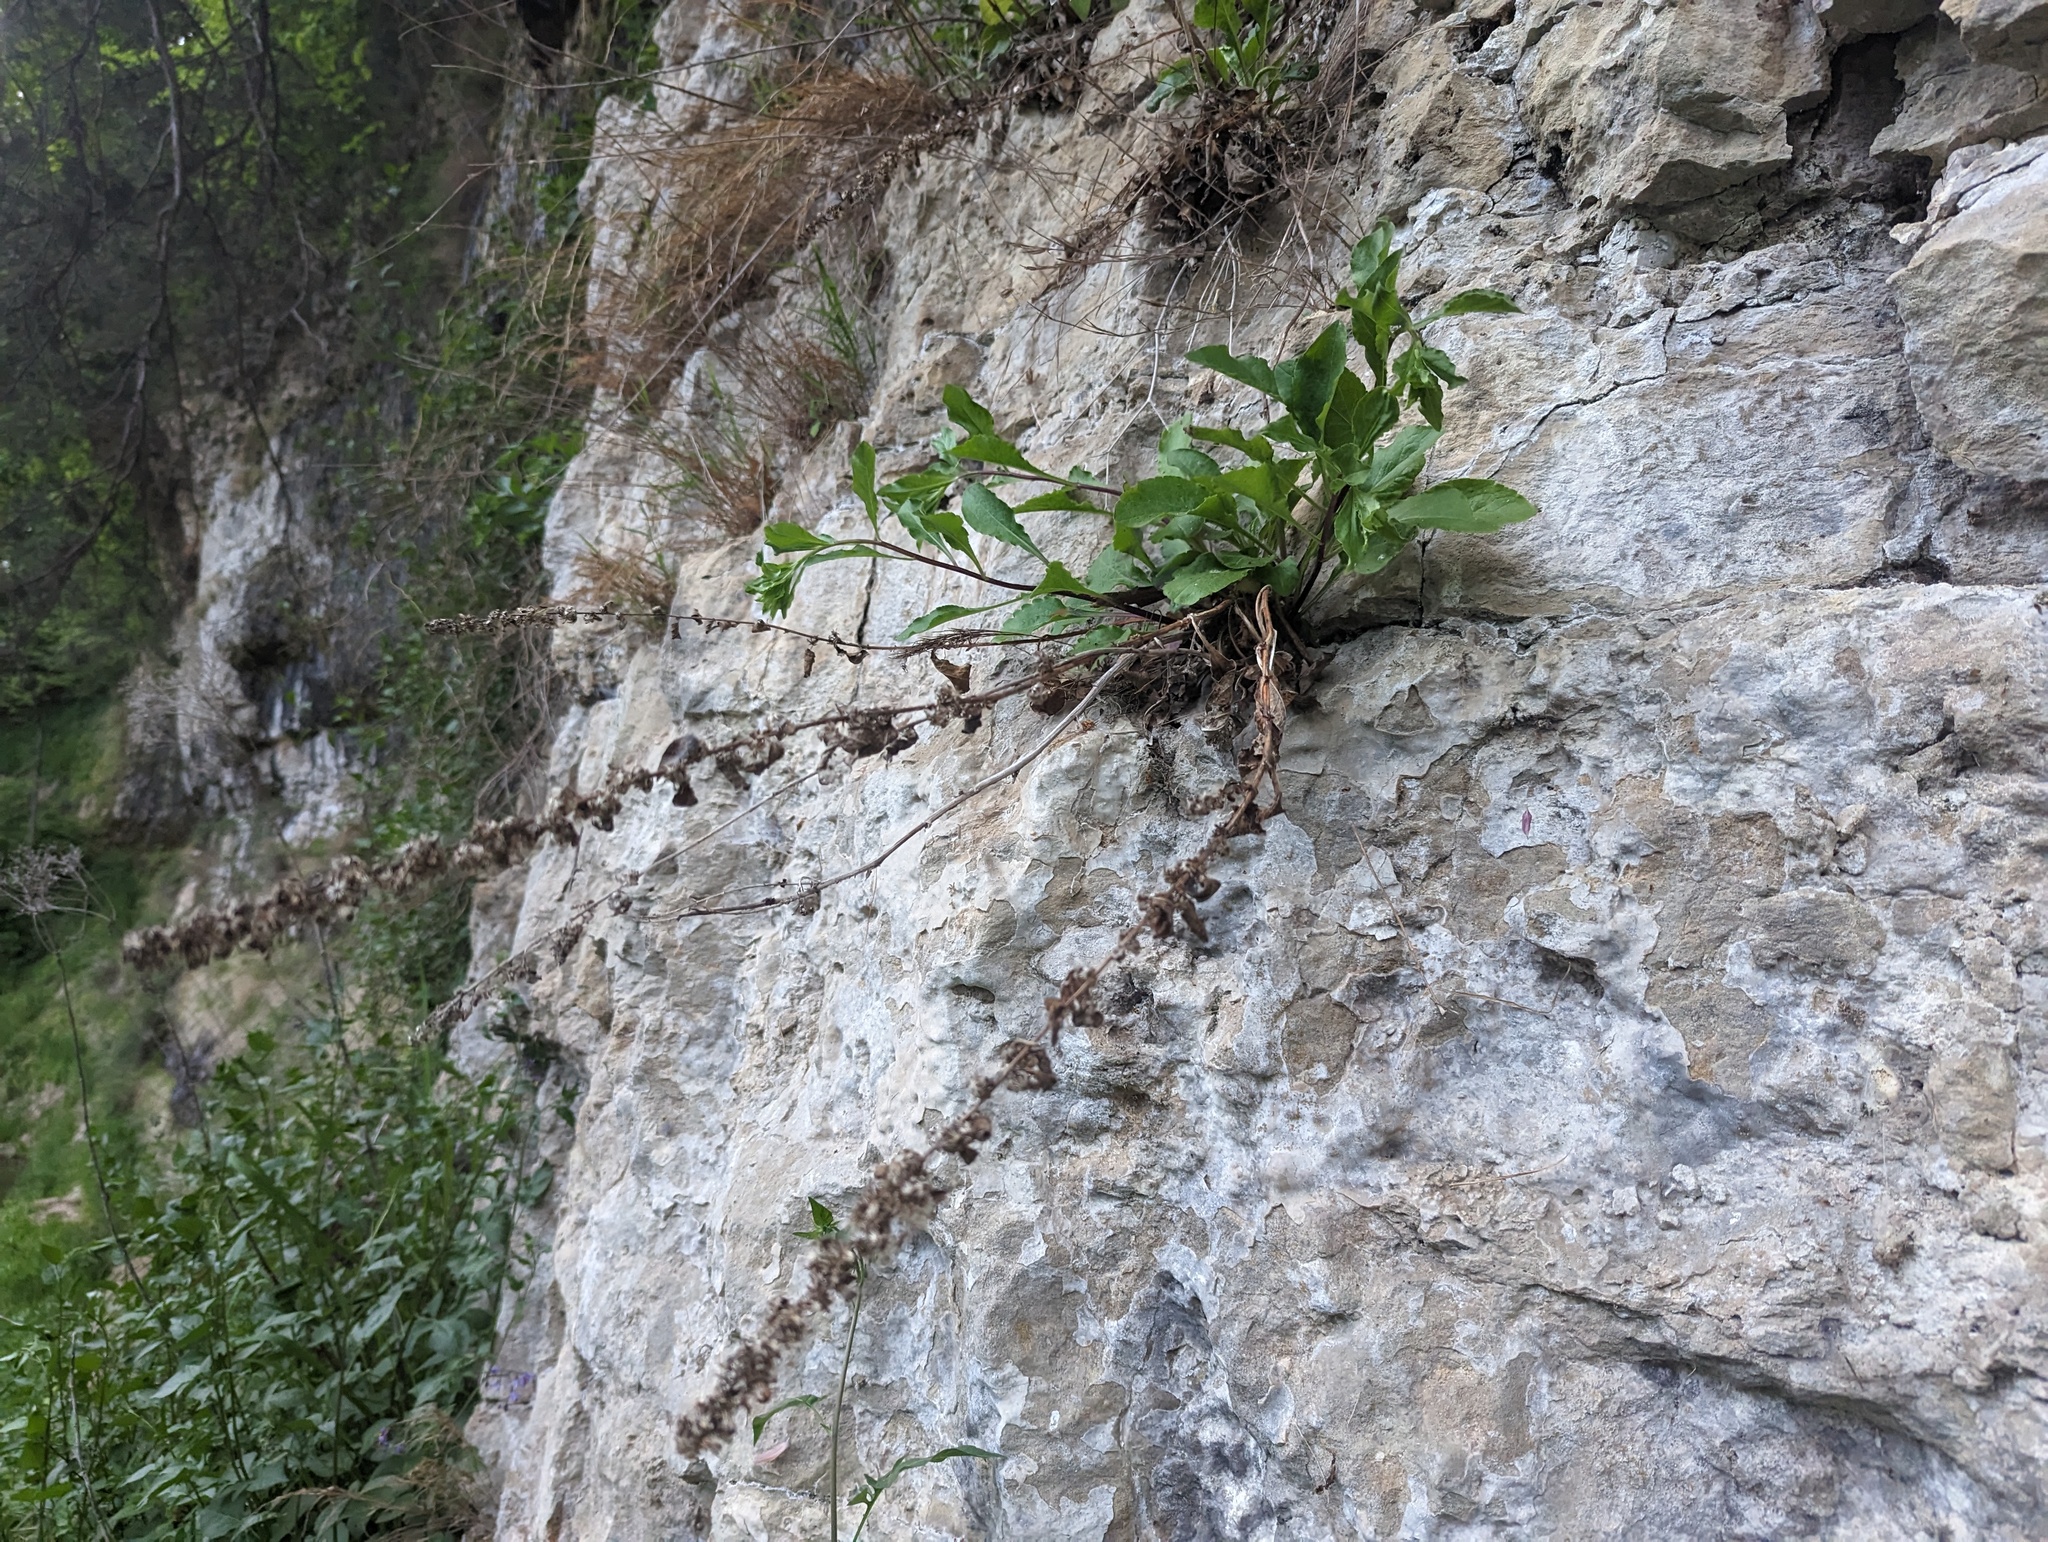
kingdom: Plantae
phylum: Tracheophyta
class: Magnoliopsida
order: Asterales
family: Asteraceae
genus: Solidago
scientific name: Solidago sciaphila
